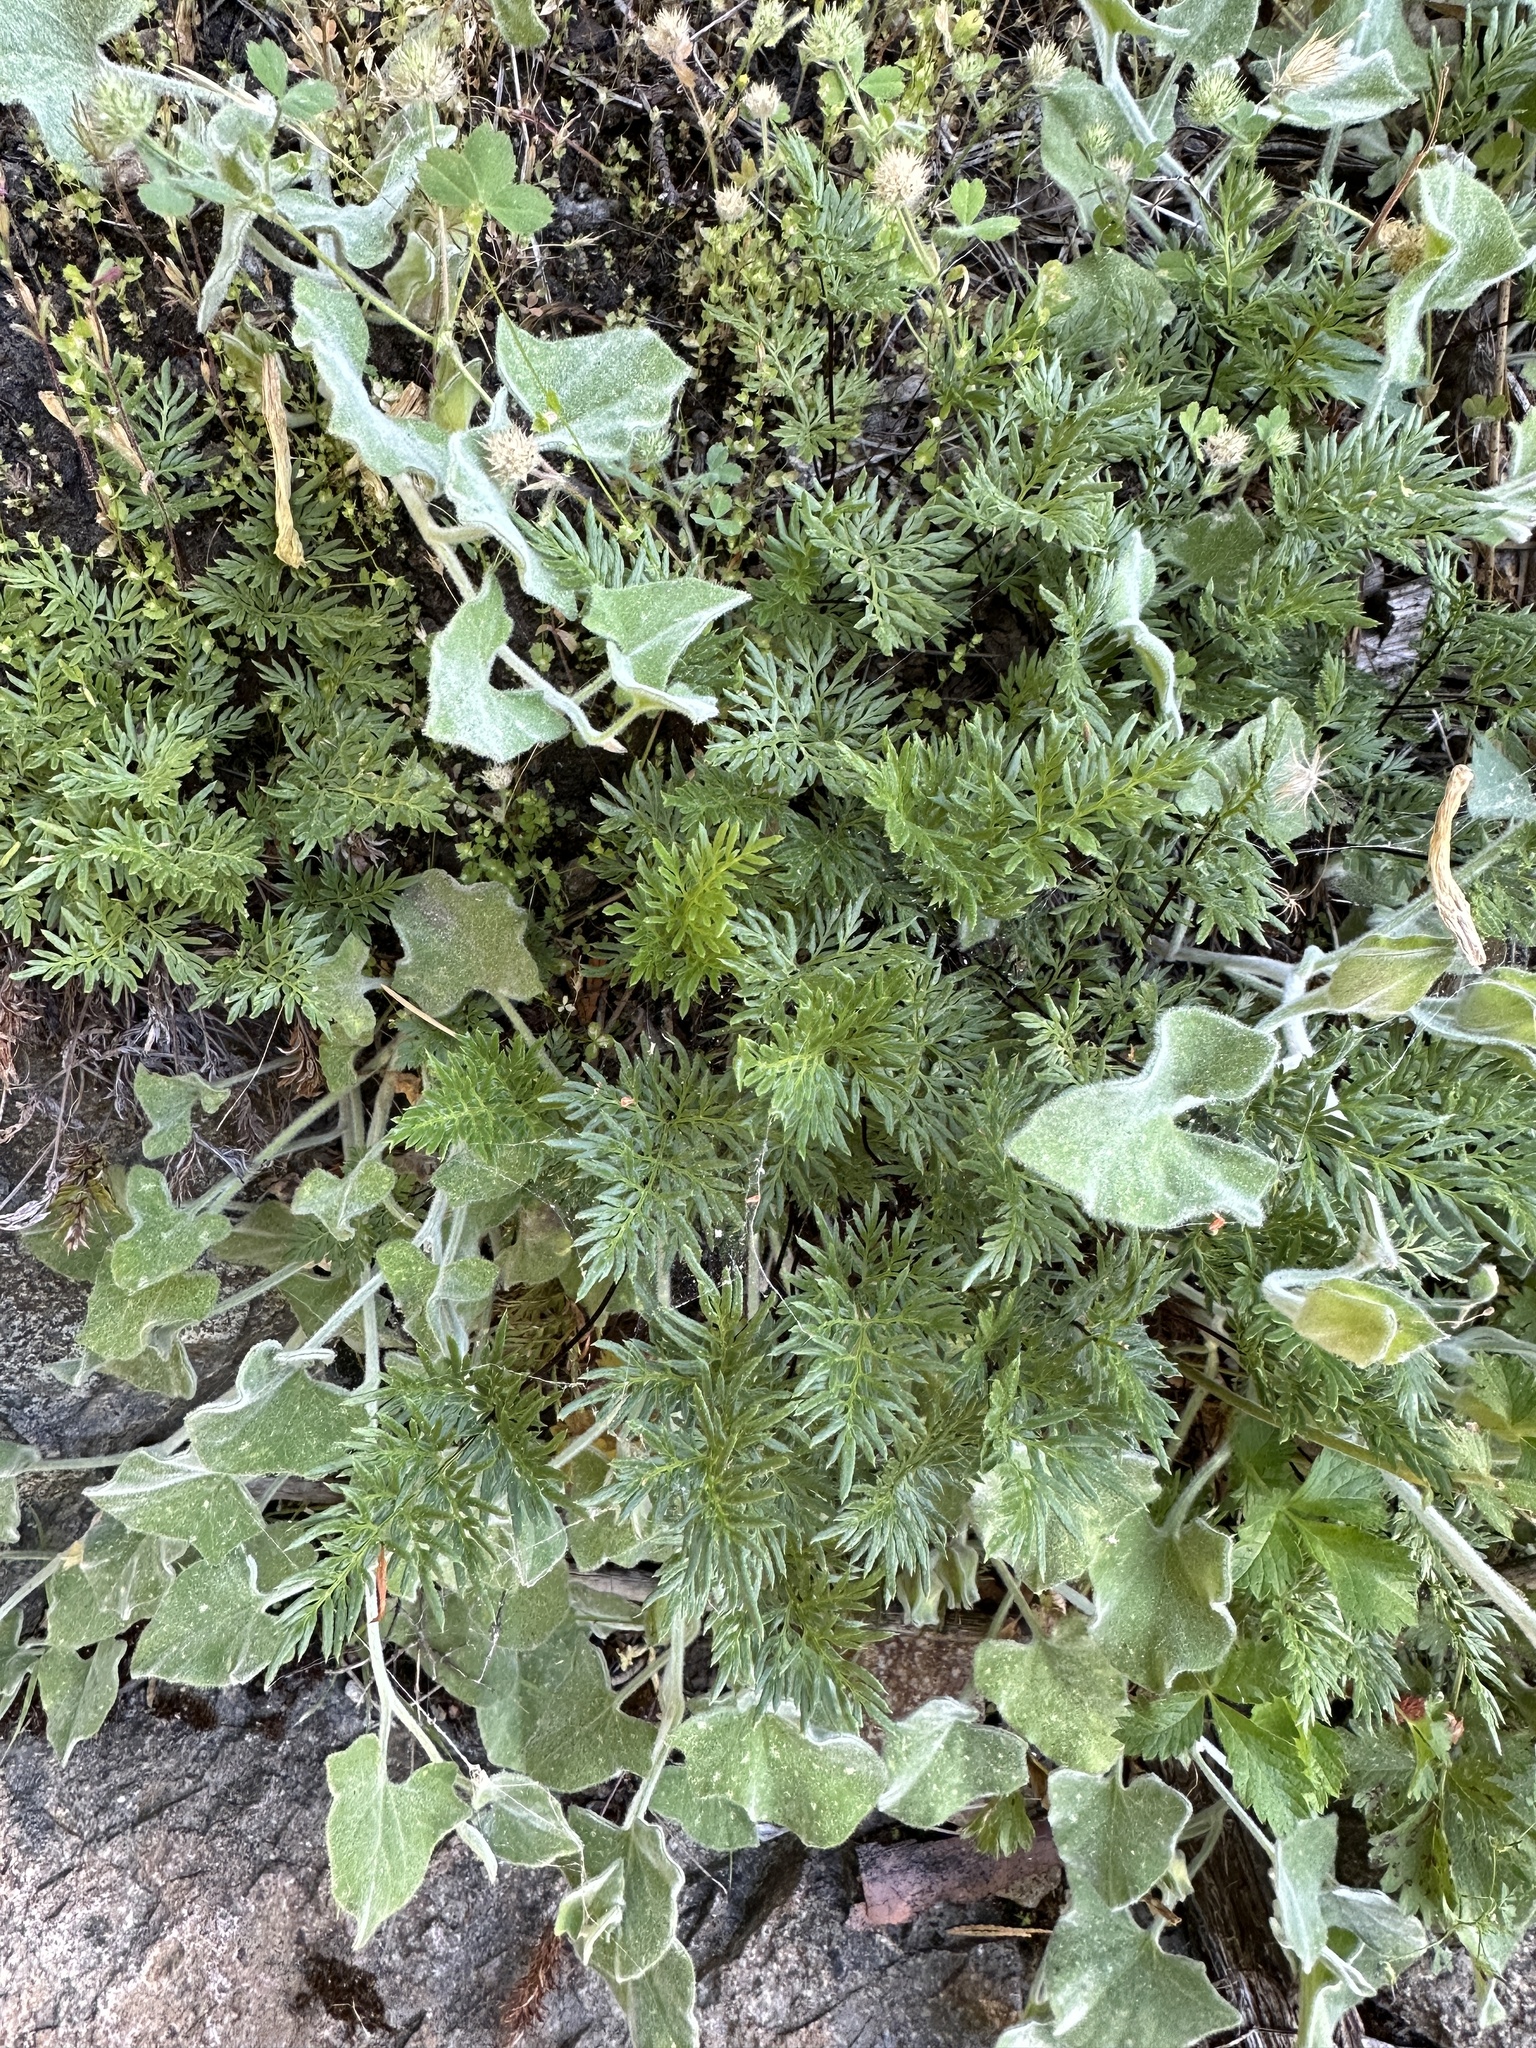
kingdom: Plantae
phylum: Tracheophyta
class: Polypodiopsida
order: Polypodiales
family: Pteridaceae
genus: Aspidotis
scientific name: Aspidotis densa
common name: Indian's dream
